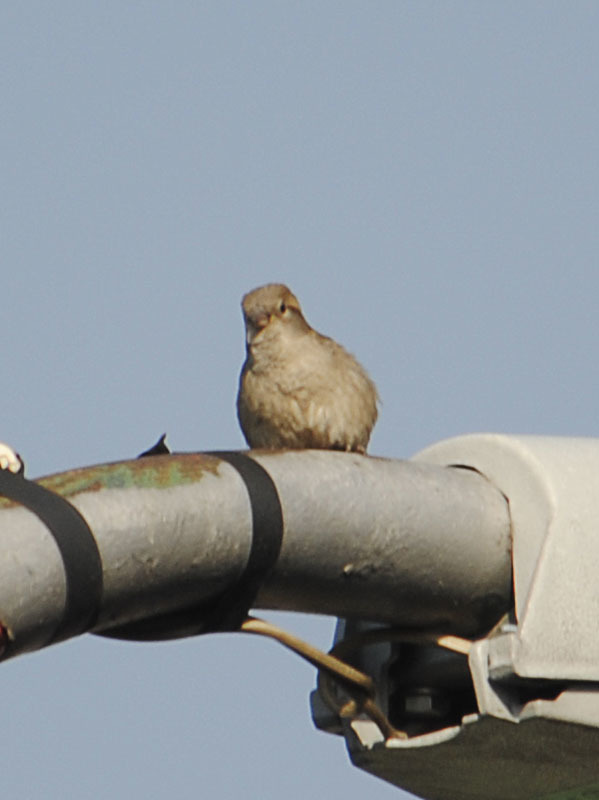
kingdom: Animalia
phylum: Chordata
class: Aves
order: Passeriformes
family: Passeridae
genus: Passer
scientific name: Passer domesticus
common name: House sparrow
